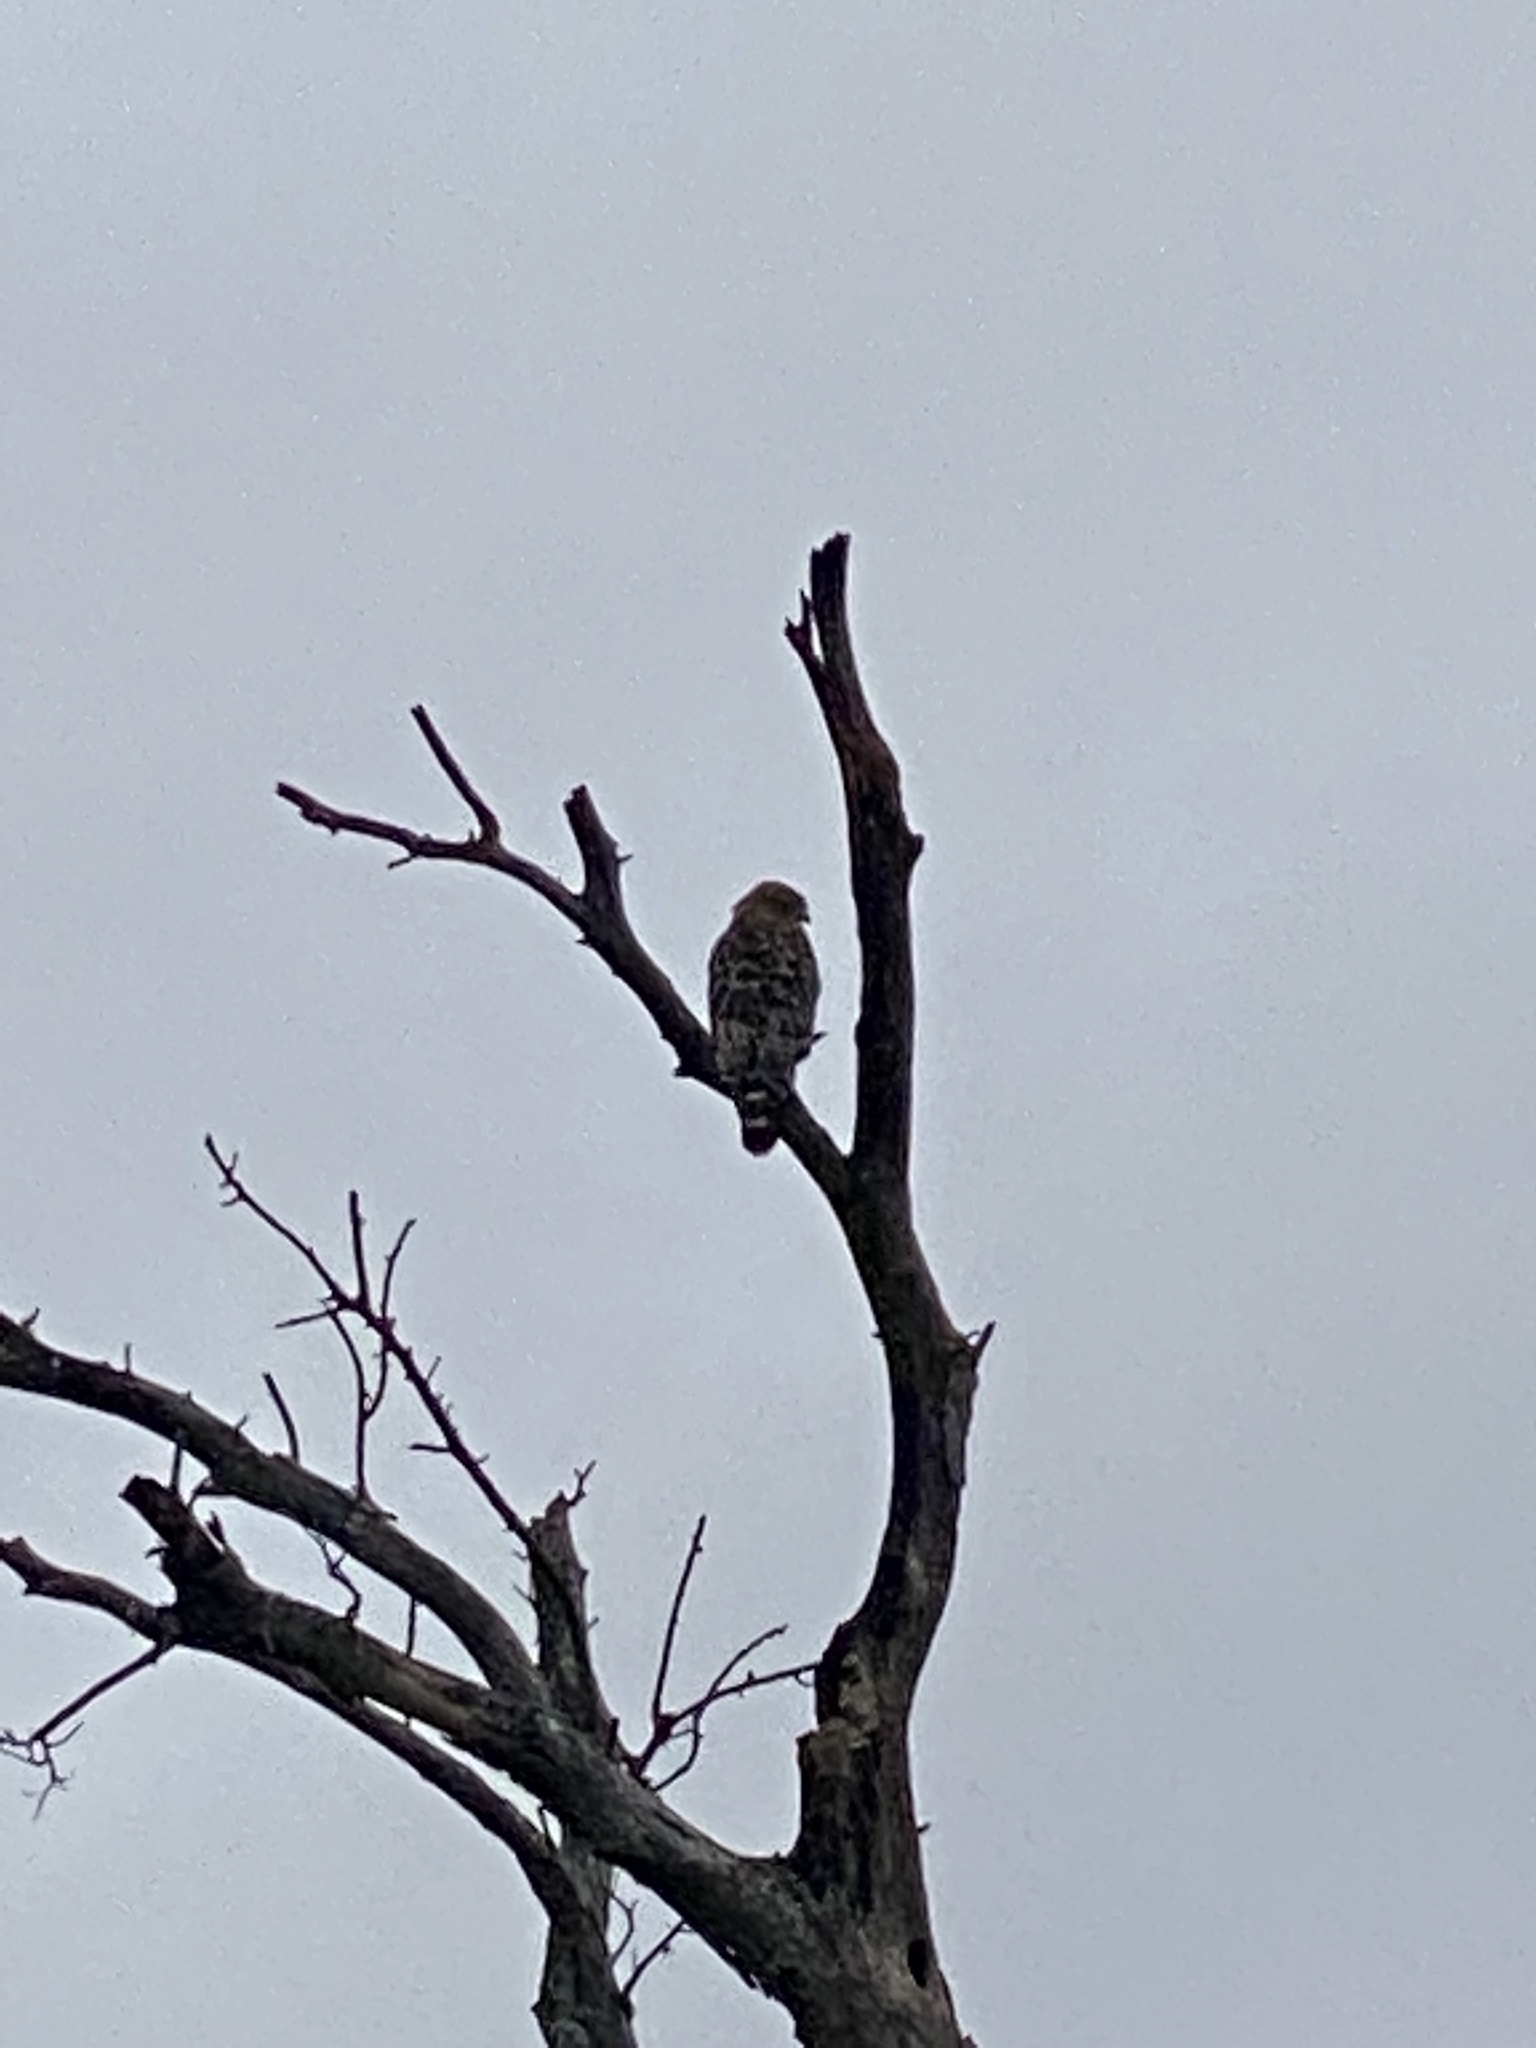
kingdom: Animalia
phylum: Chordata
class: Aves
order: Accipitriformes
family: Accipitridae
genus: Buteo
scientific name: Buteo lineatus
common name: Red-shouldered hawk
